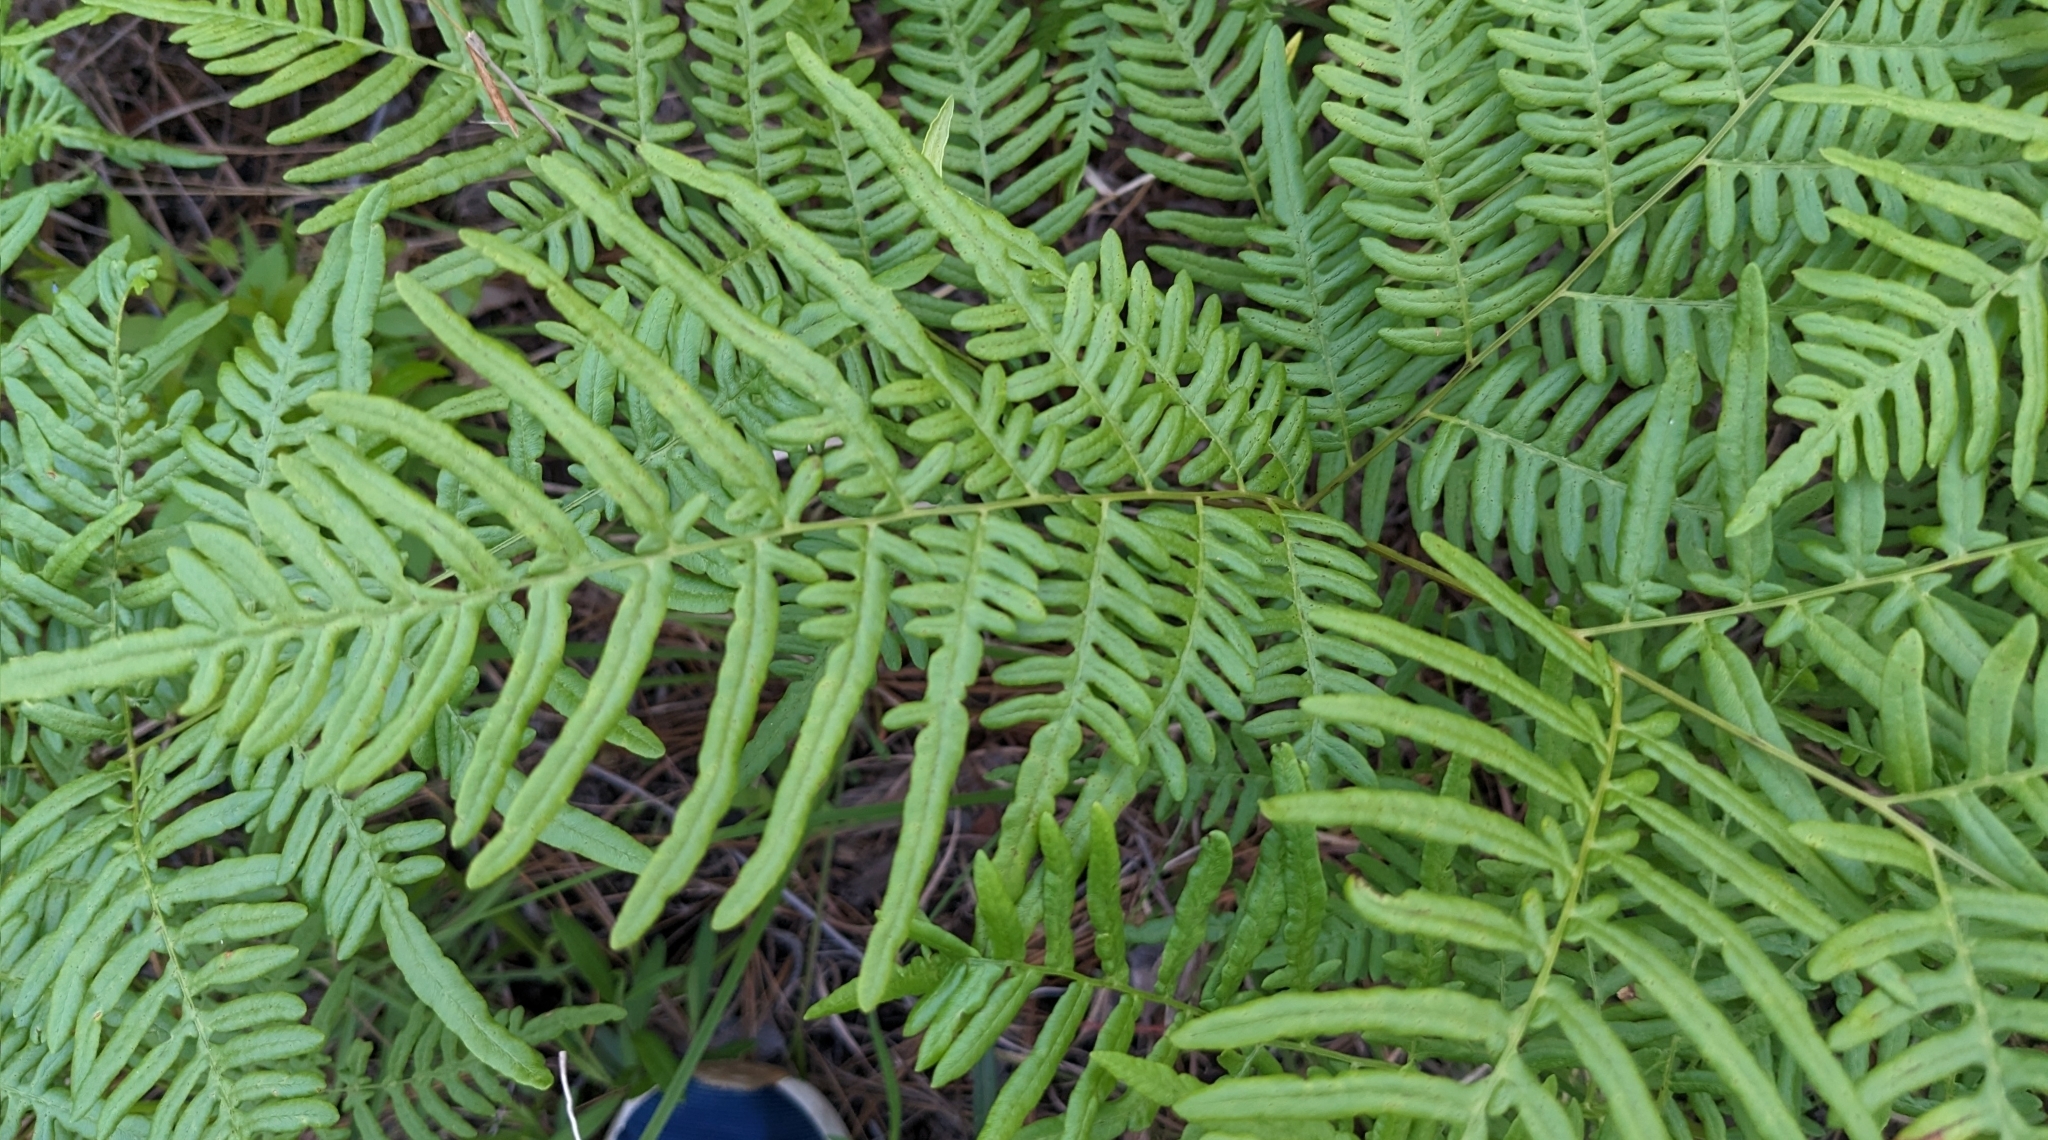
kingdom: Plantae
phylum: Tracheophyta
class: Polypodiopsida
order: Polypodiales
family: Dennstaedtiaceae
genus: Pteridium
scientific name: Pteridium aquilinum
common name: Bracken
